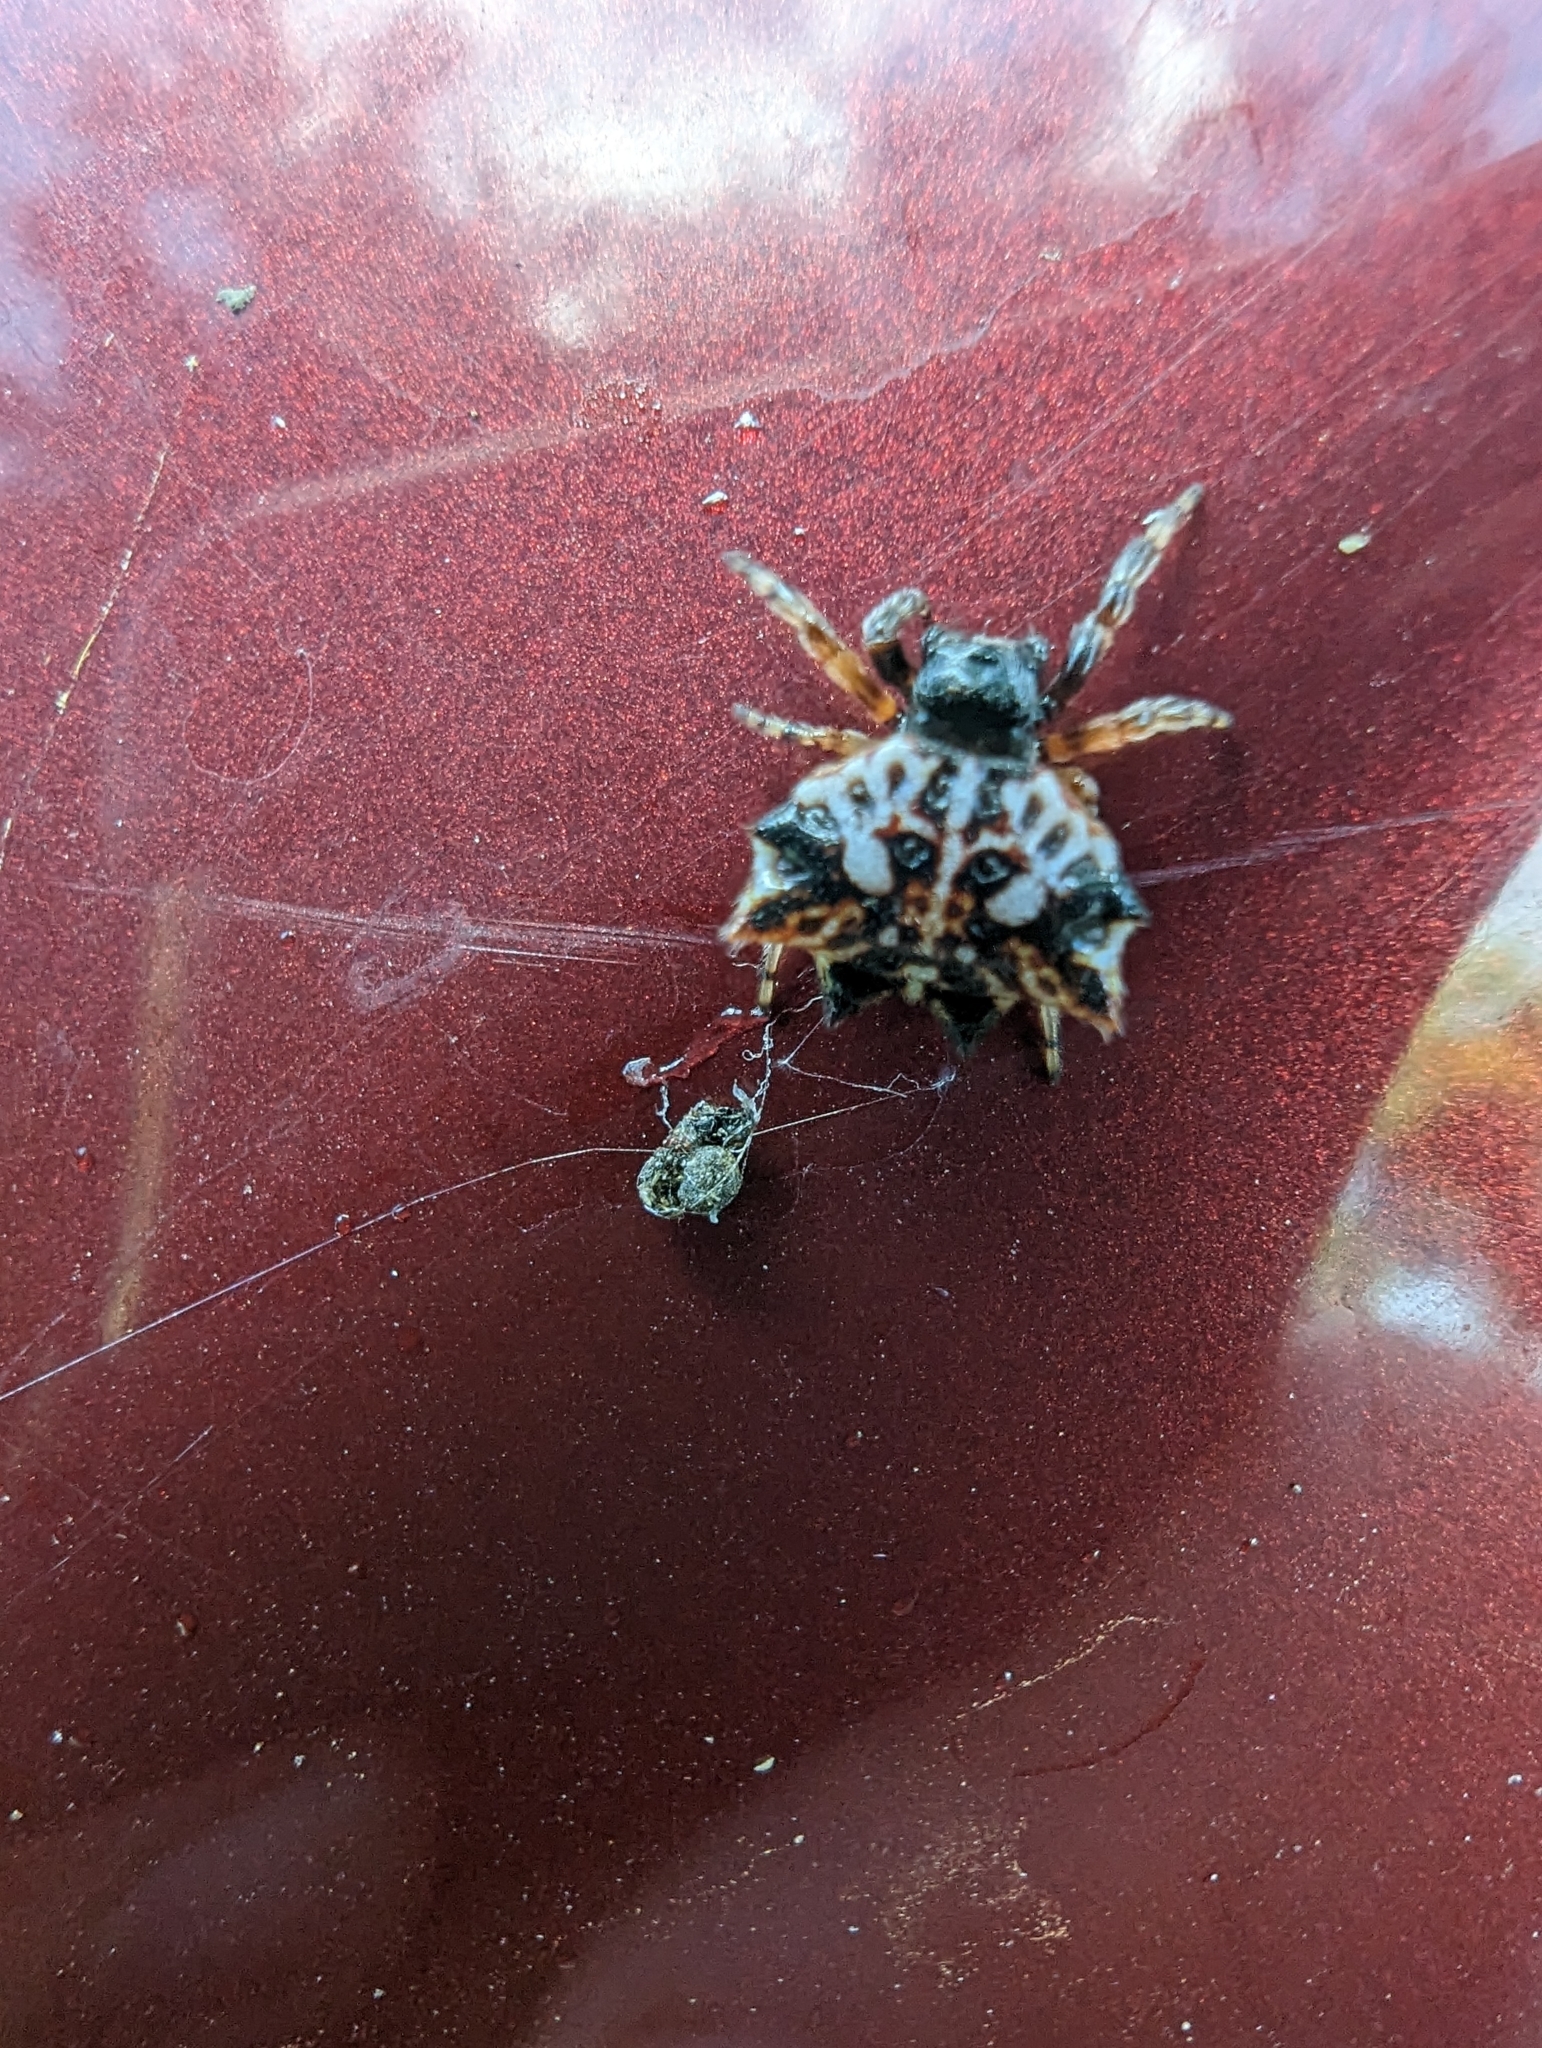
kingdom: Animalia
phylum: Arthropoda
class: Arachnida
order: Araneae
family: Araneidae
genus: Gasteracantha
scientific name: Gasteracantha sacerdotalis
